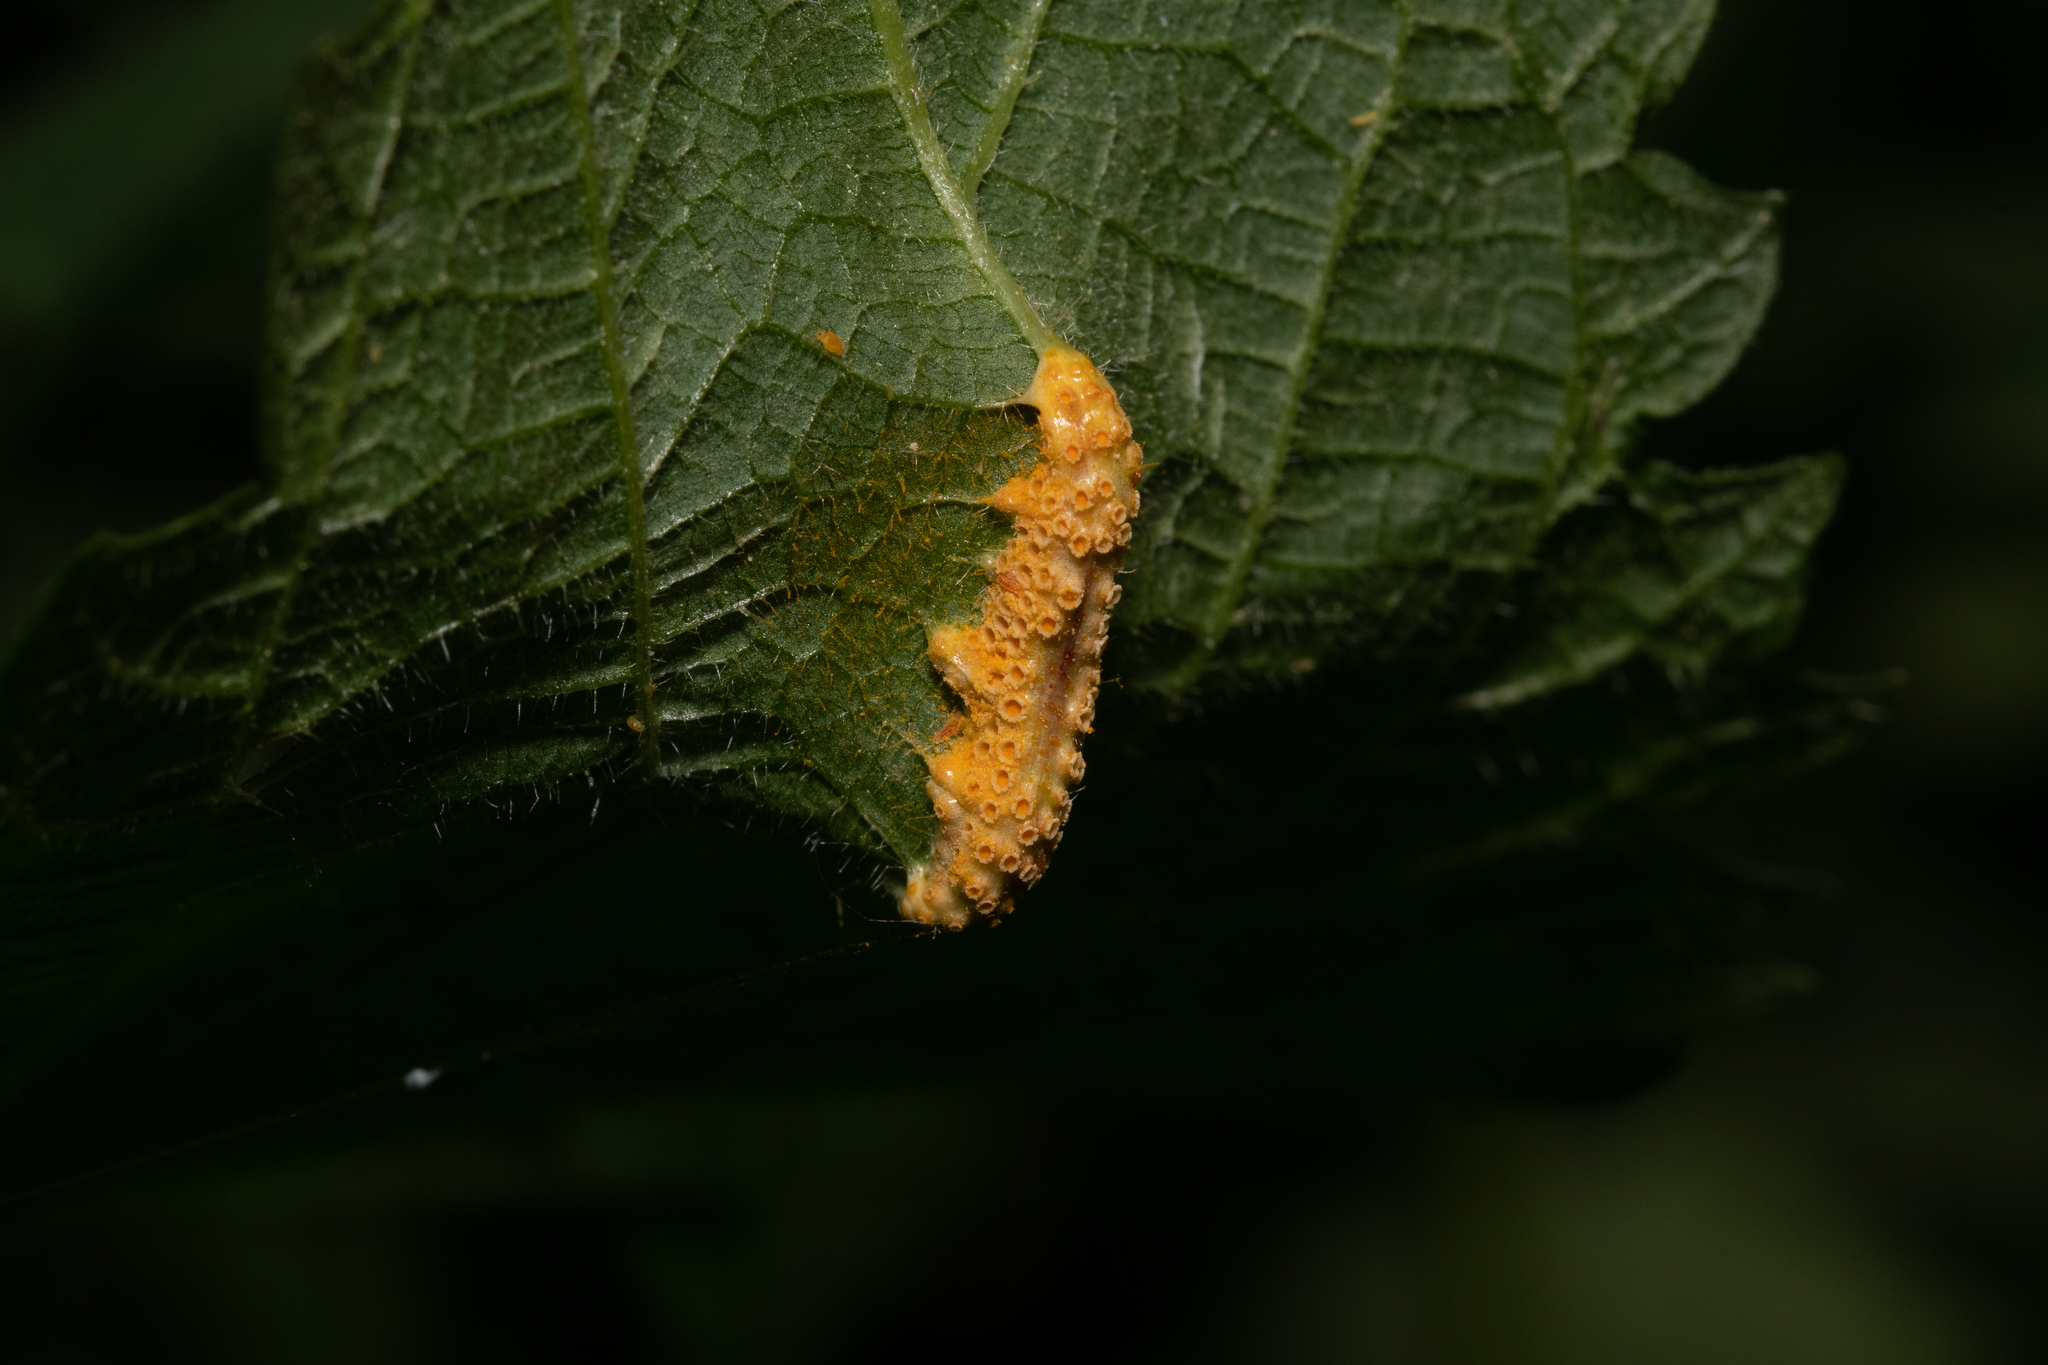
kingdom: Fungi
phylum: Basidiomycota
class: Pucciniomycetes
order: Pucciniales
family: Pucciniaceae
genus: Puccinia
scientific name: Puccinia urticata
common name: Nettle clustercup rust fungus
